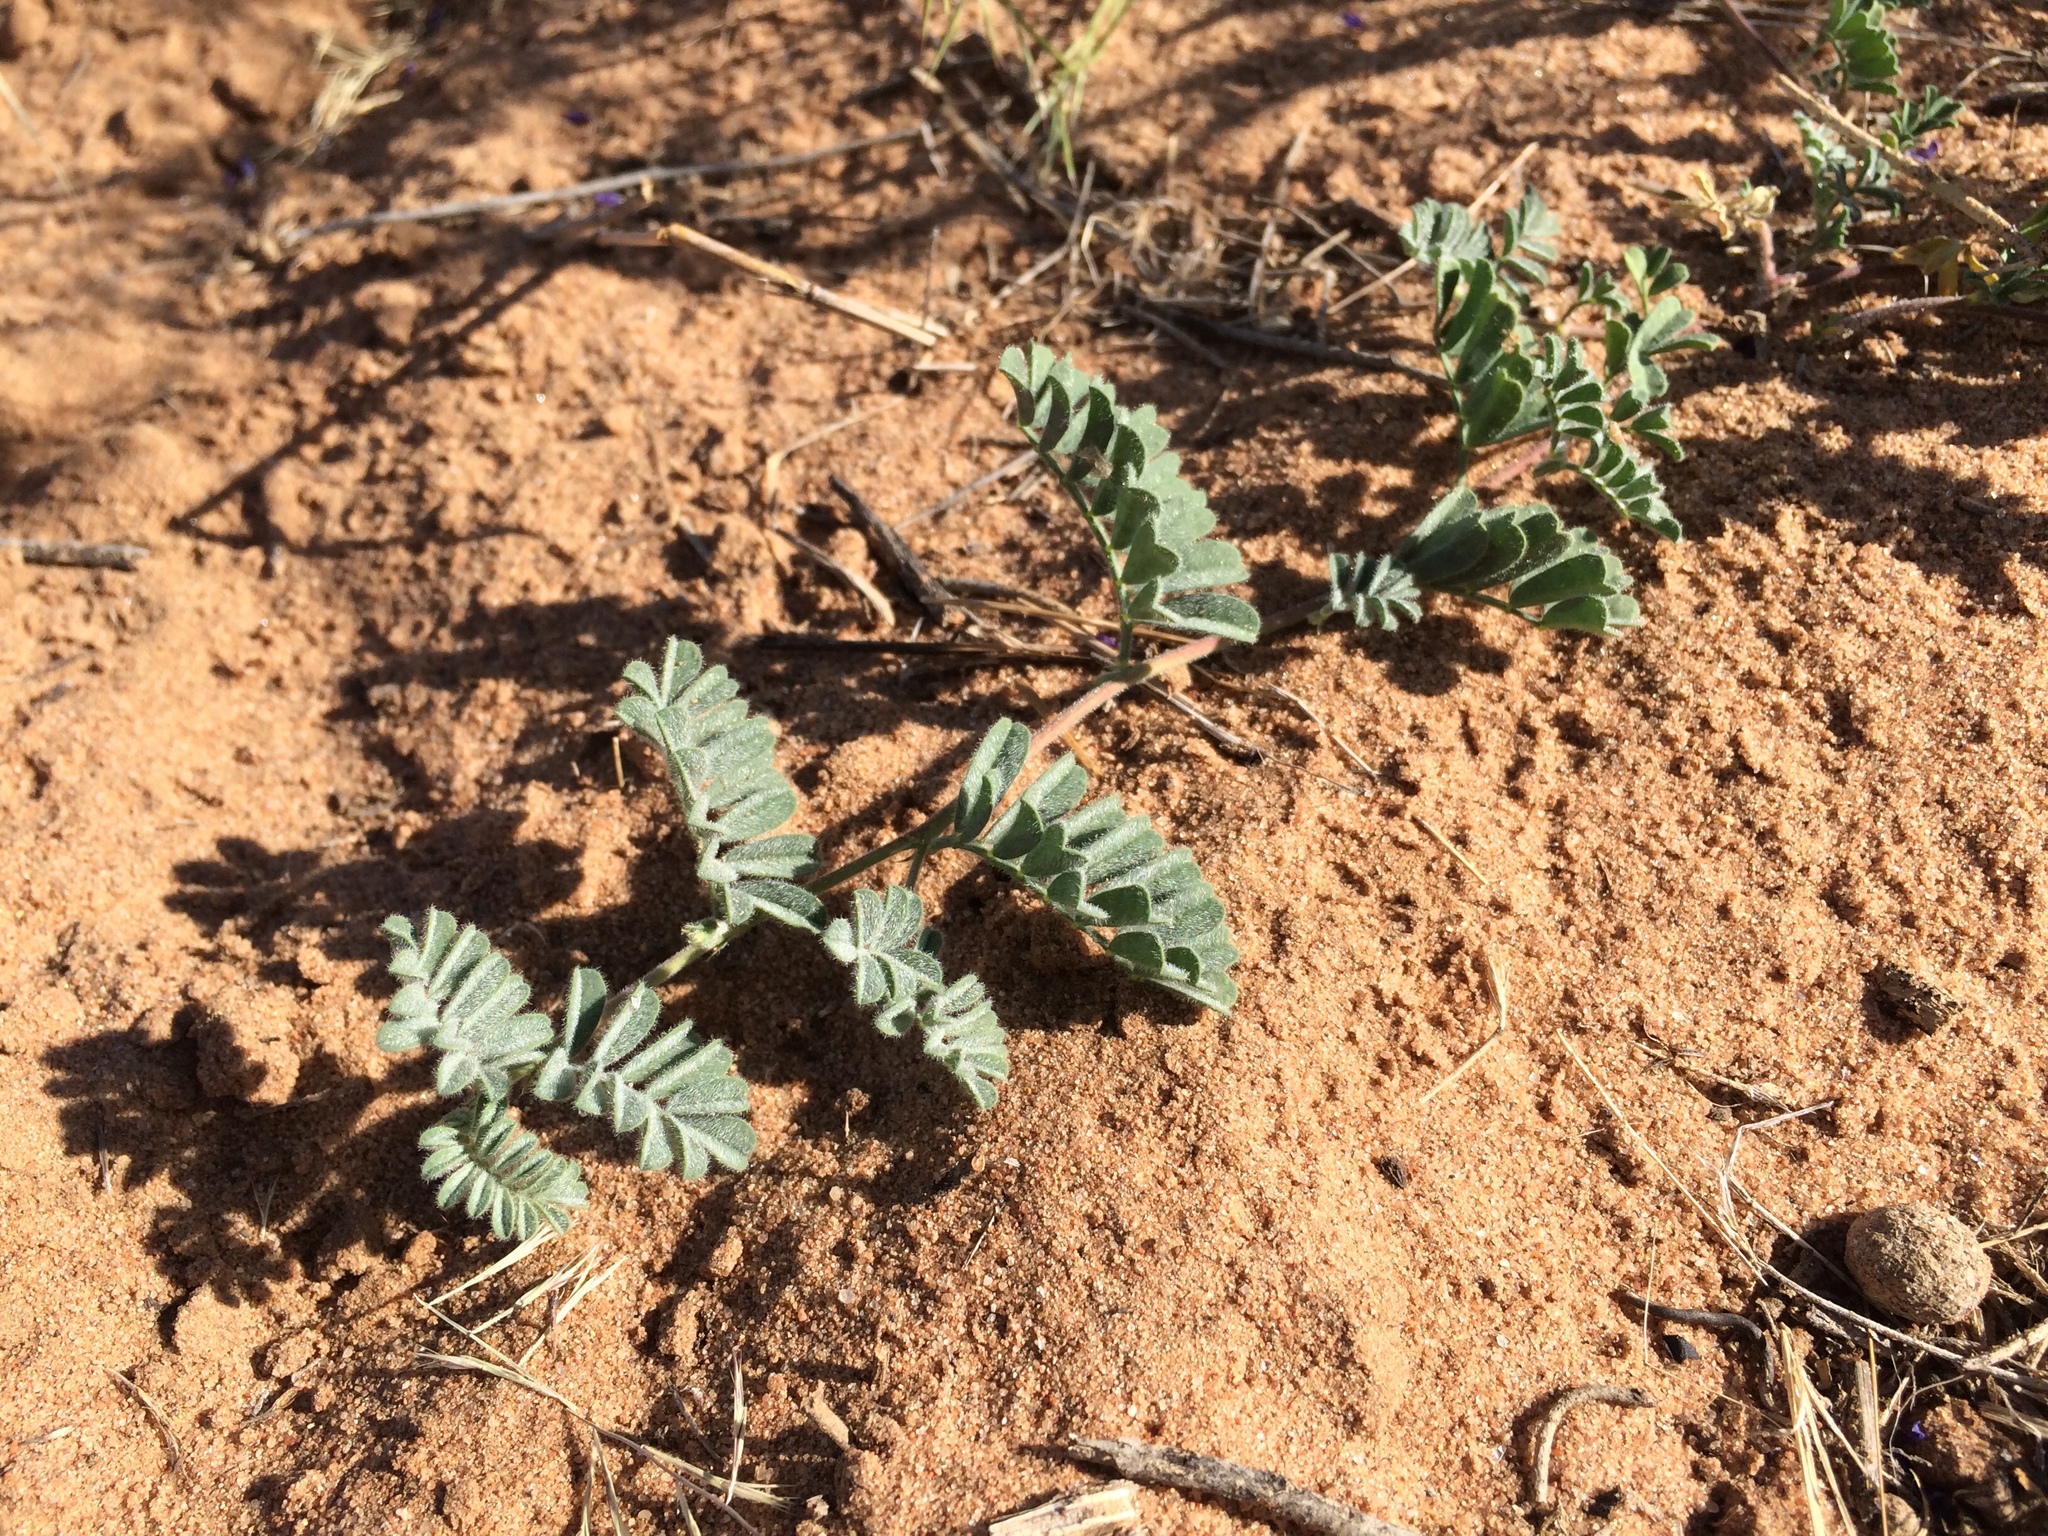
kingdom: Plantae
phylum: Tracheophyta
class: Magnoliopsida
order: Fabales
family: Fabaceae
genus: Dalea
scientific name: Dalea lanata
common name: Woolly dalea
